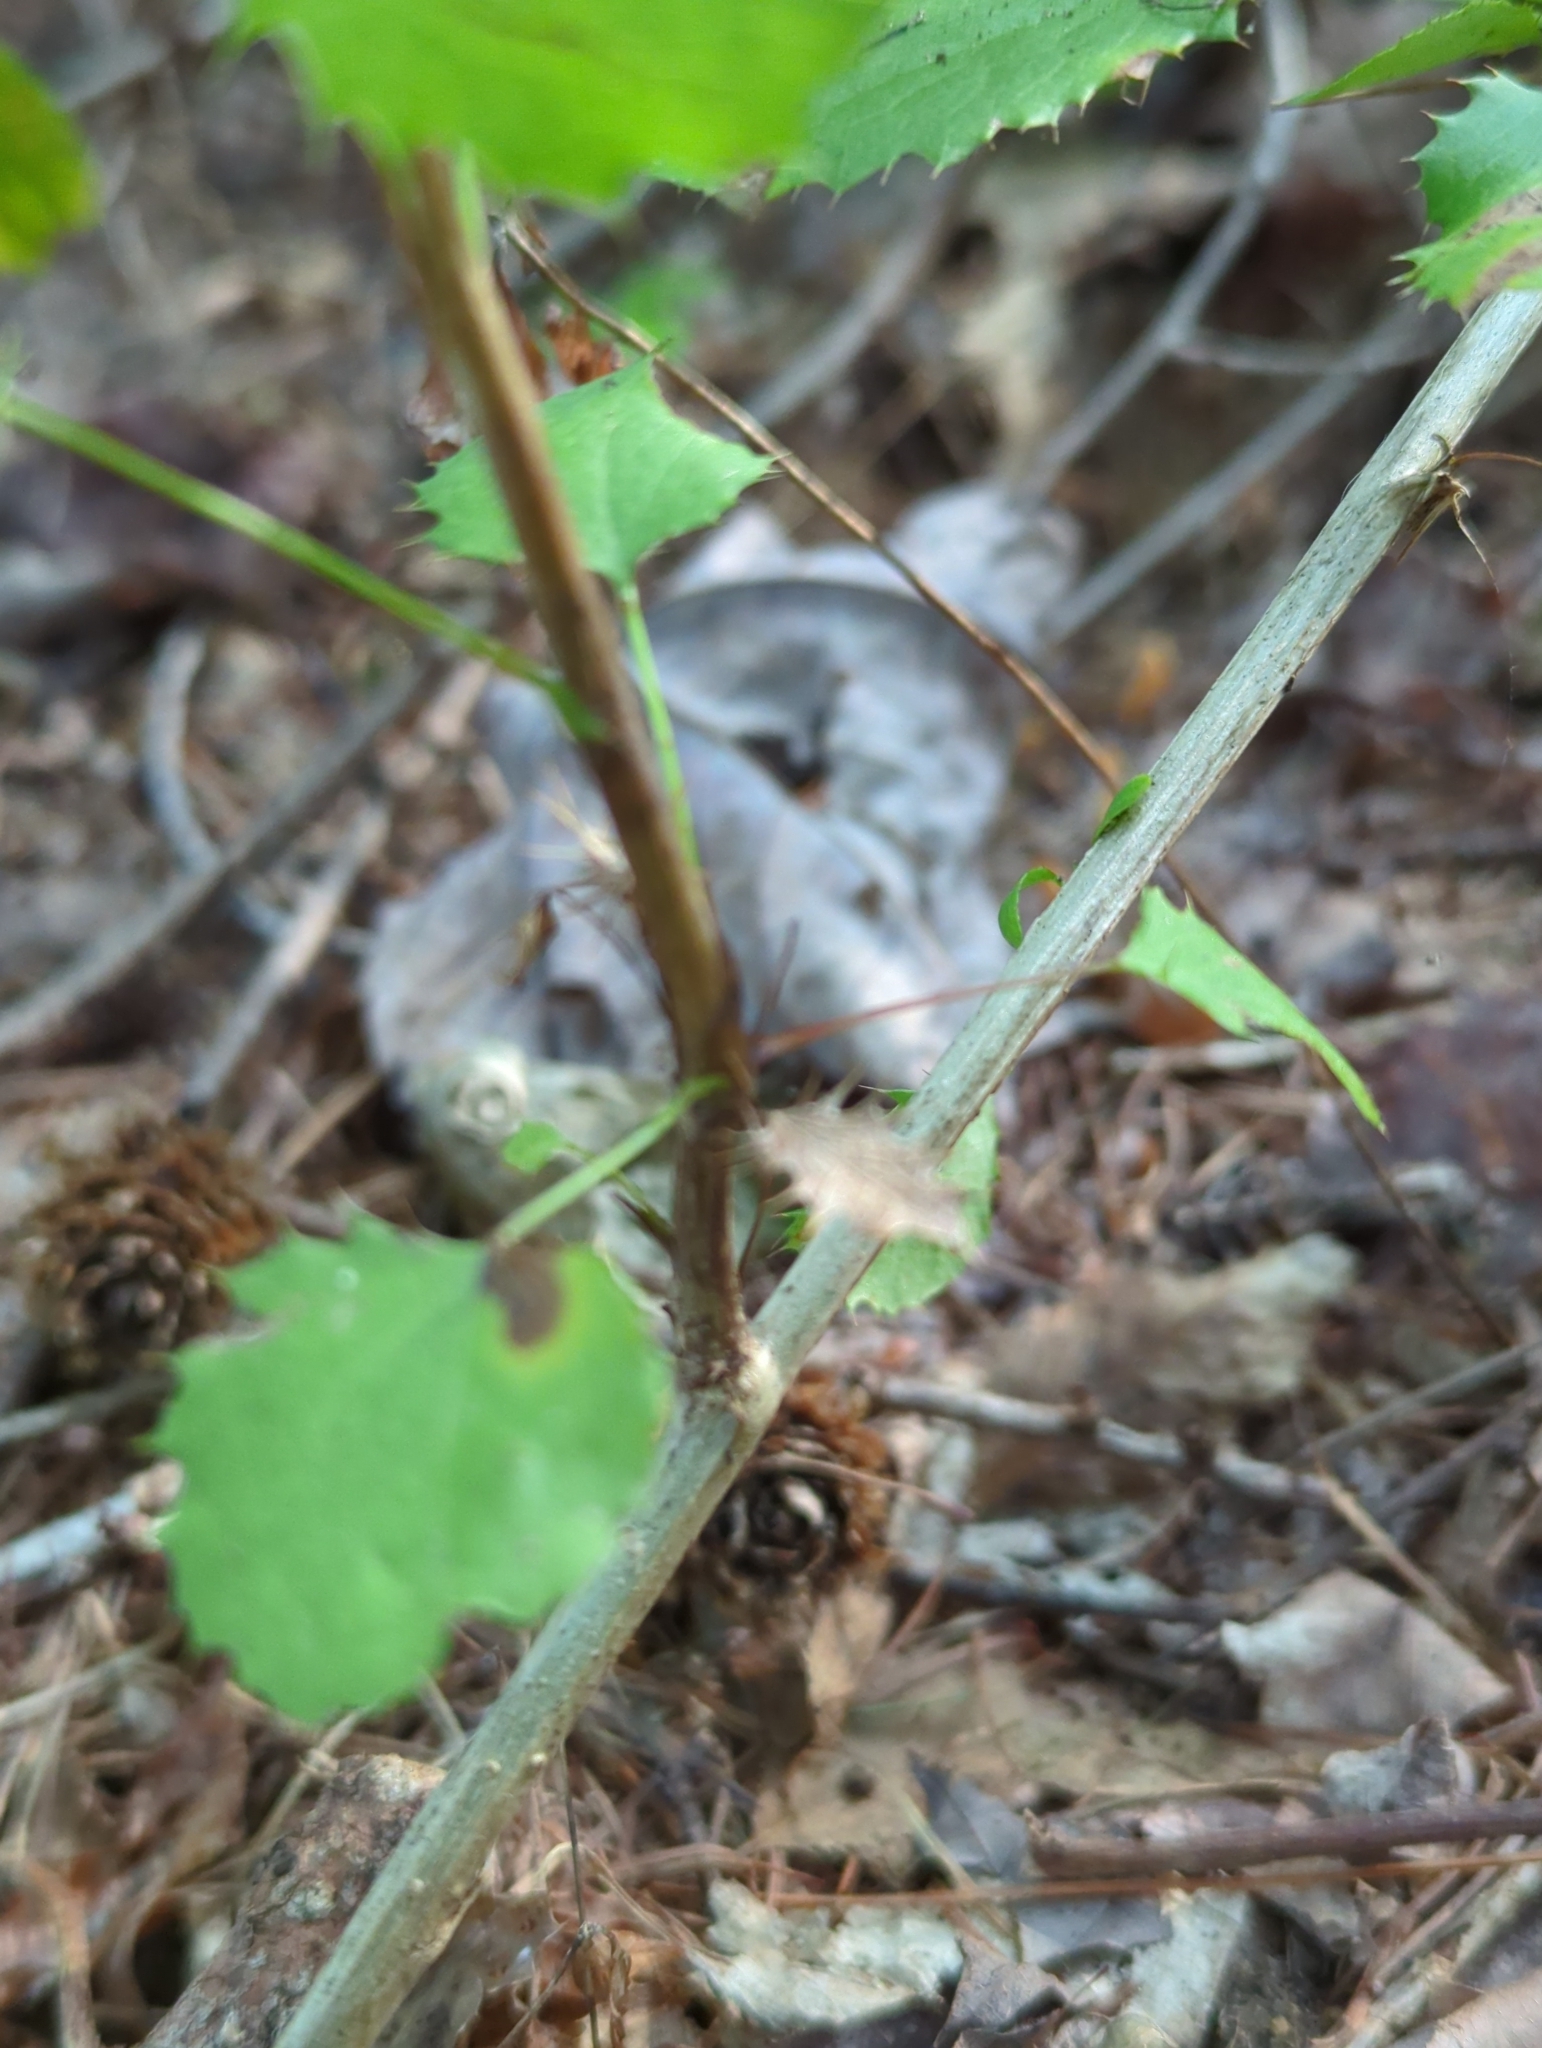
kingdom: Plantae
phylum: Tracheophyta
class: Magnoliopsida
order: Ranunculales
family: Berberidaceae
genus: Berberis
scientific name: Berberis vulgaris
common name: Barberry
